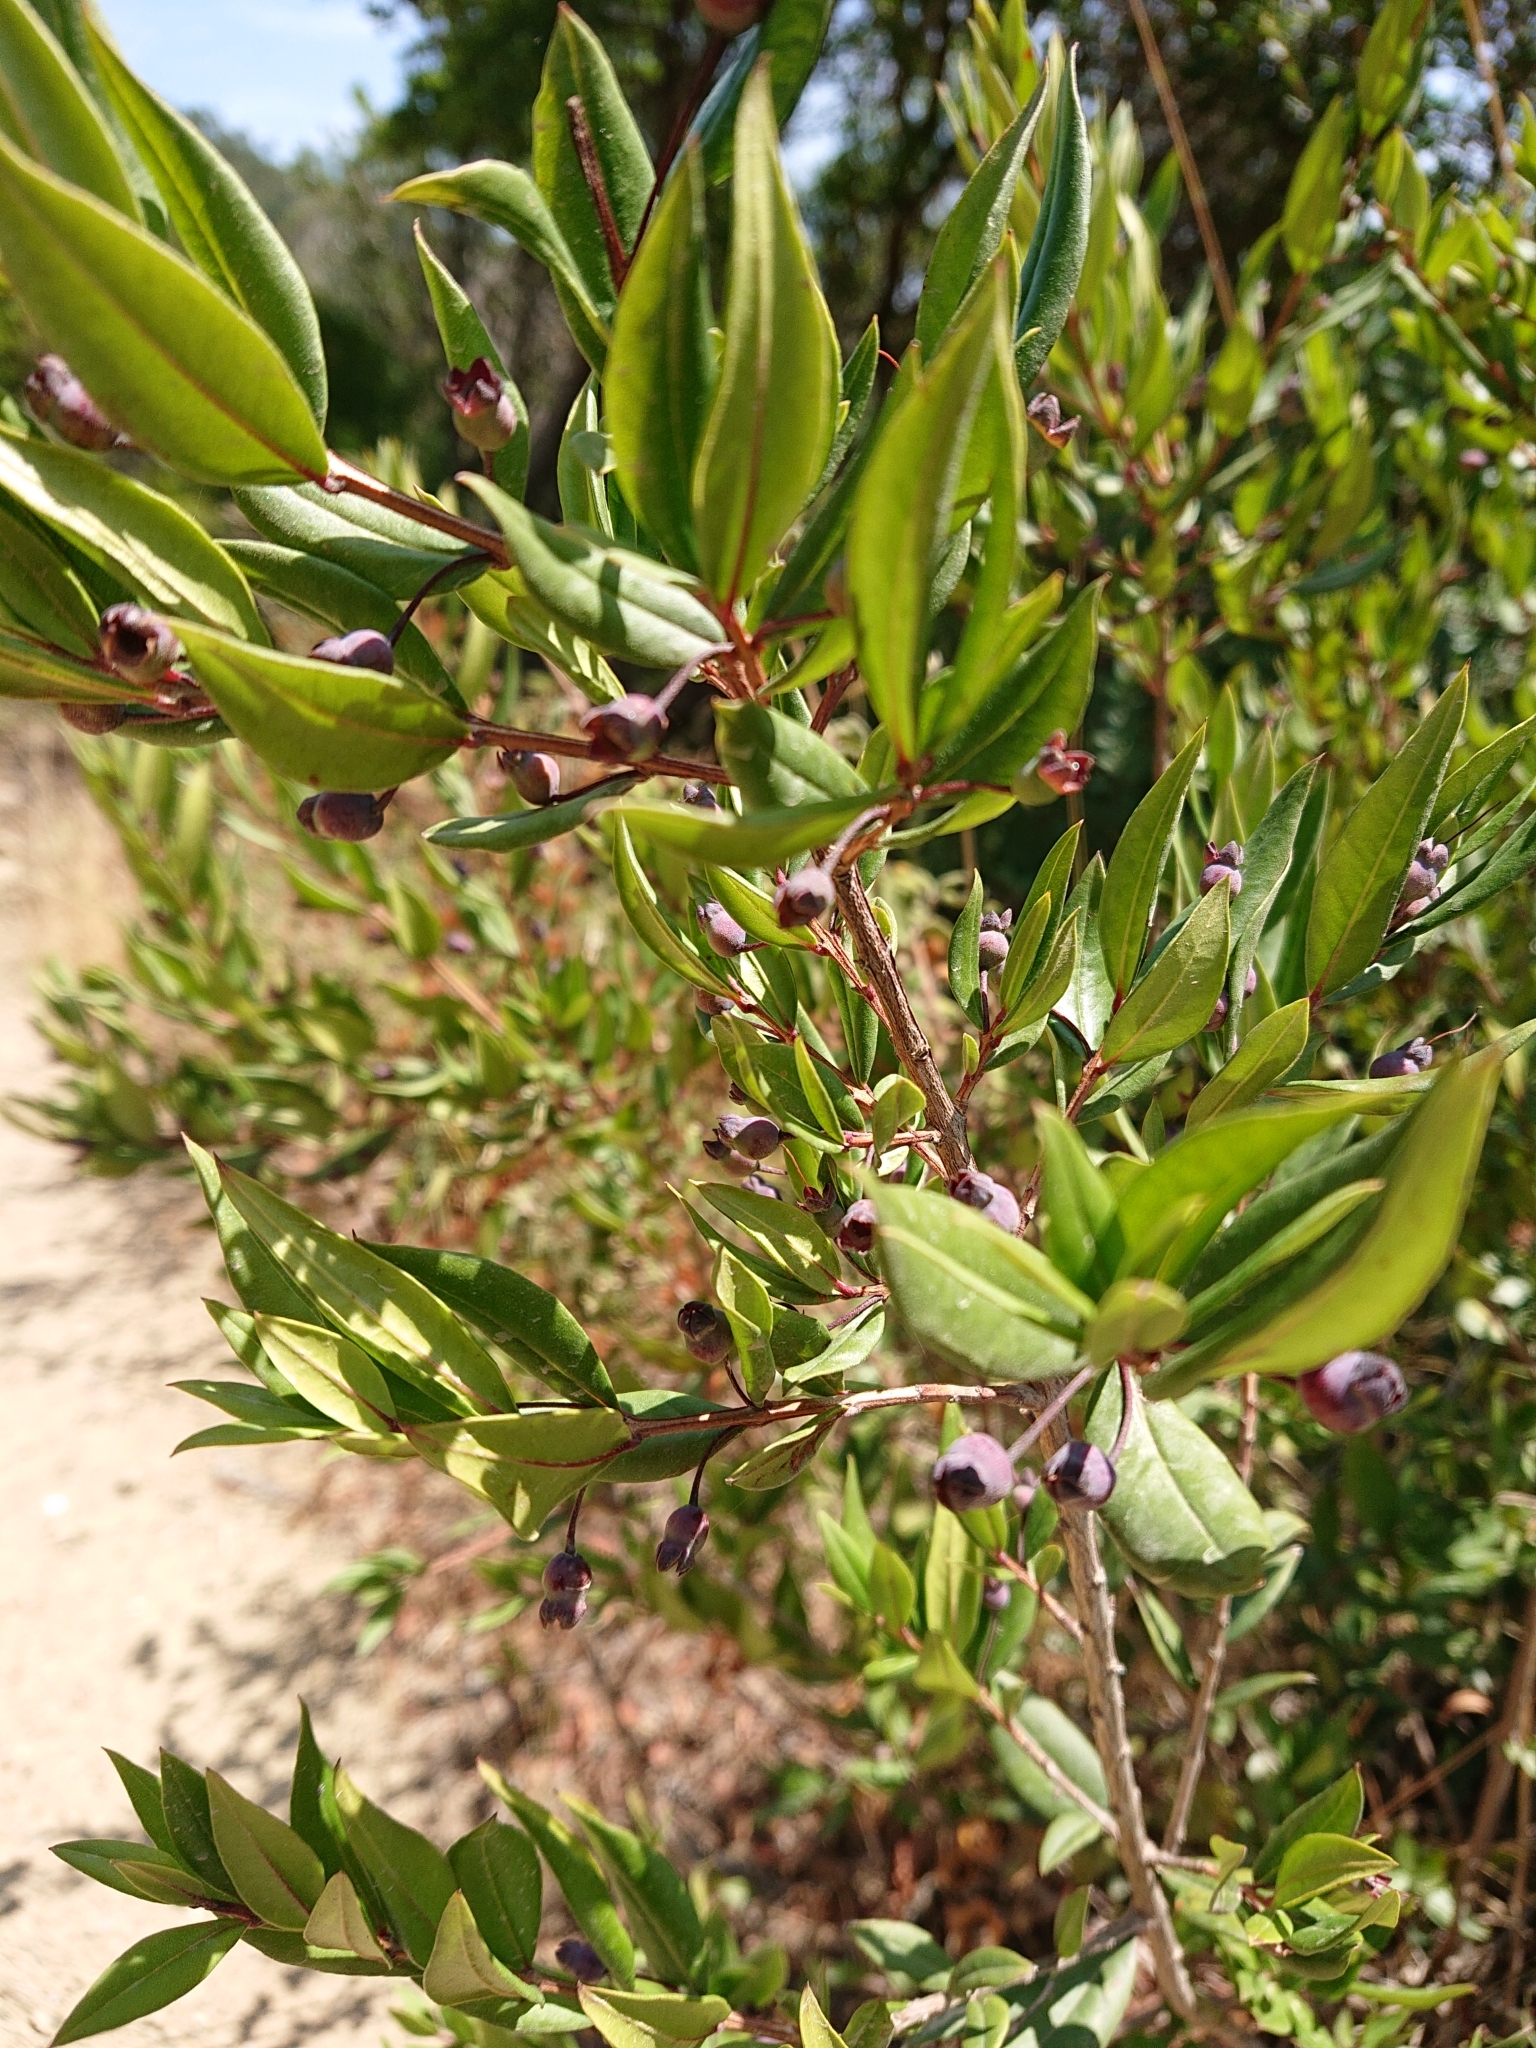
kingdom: Plantae
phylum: Tracheophyta
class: Magnoliopsida
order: Myrtales
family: Myrtaceae
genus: Myrtus
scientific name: Myrtus communis
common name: Myrtle
